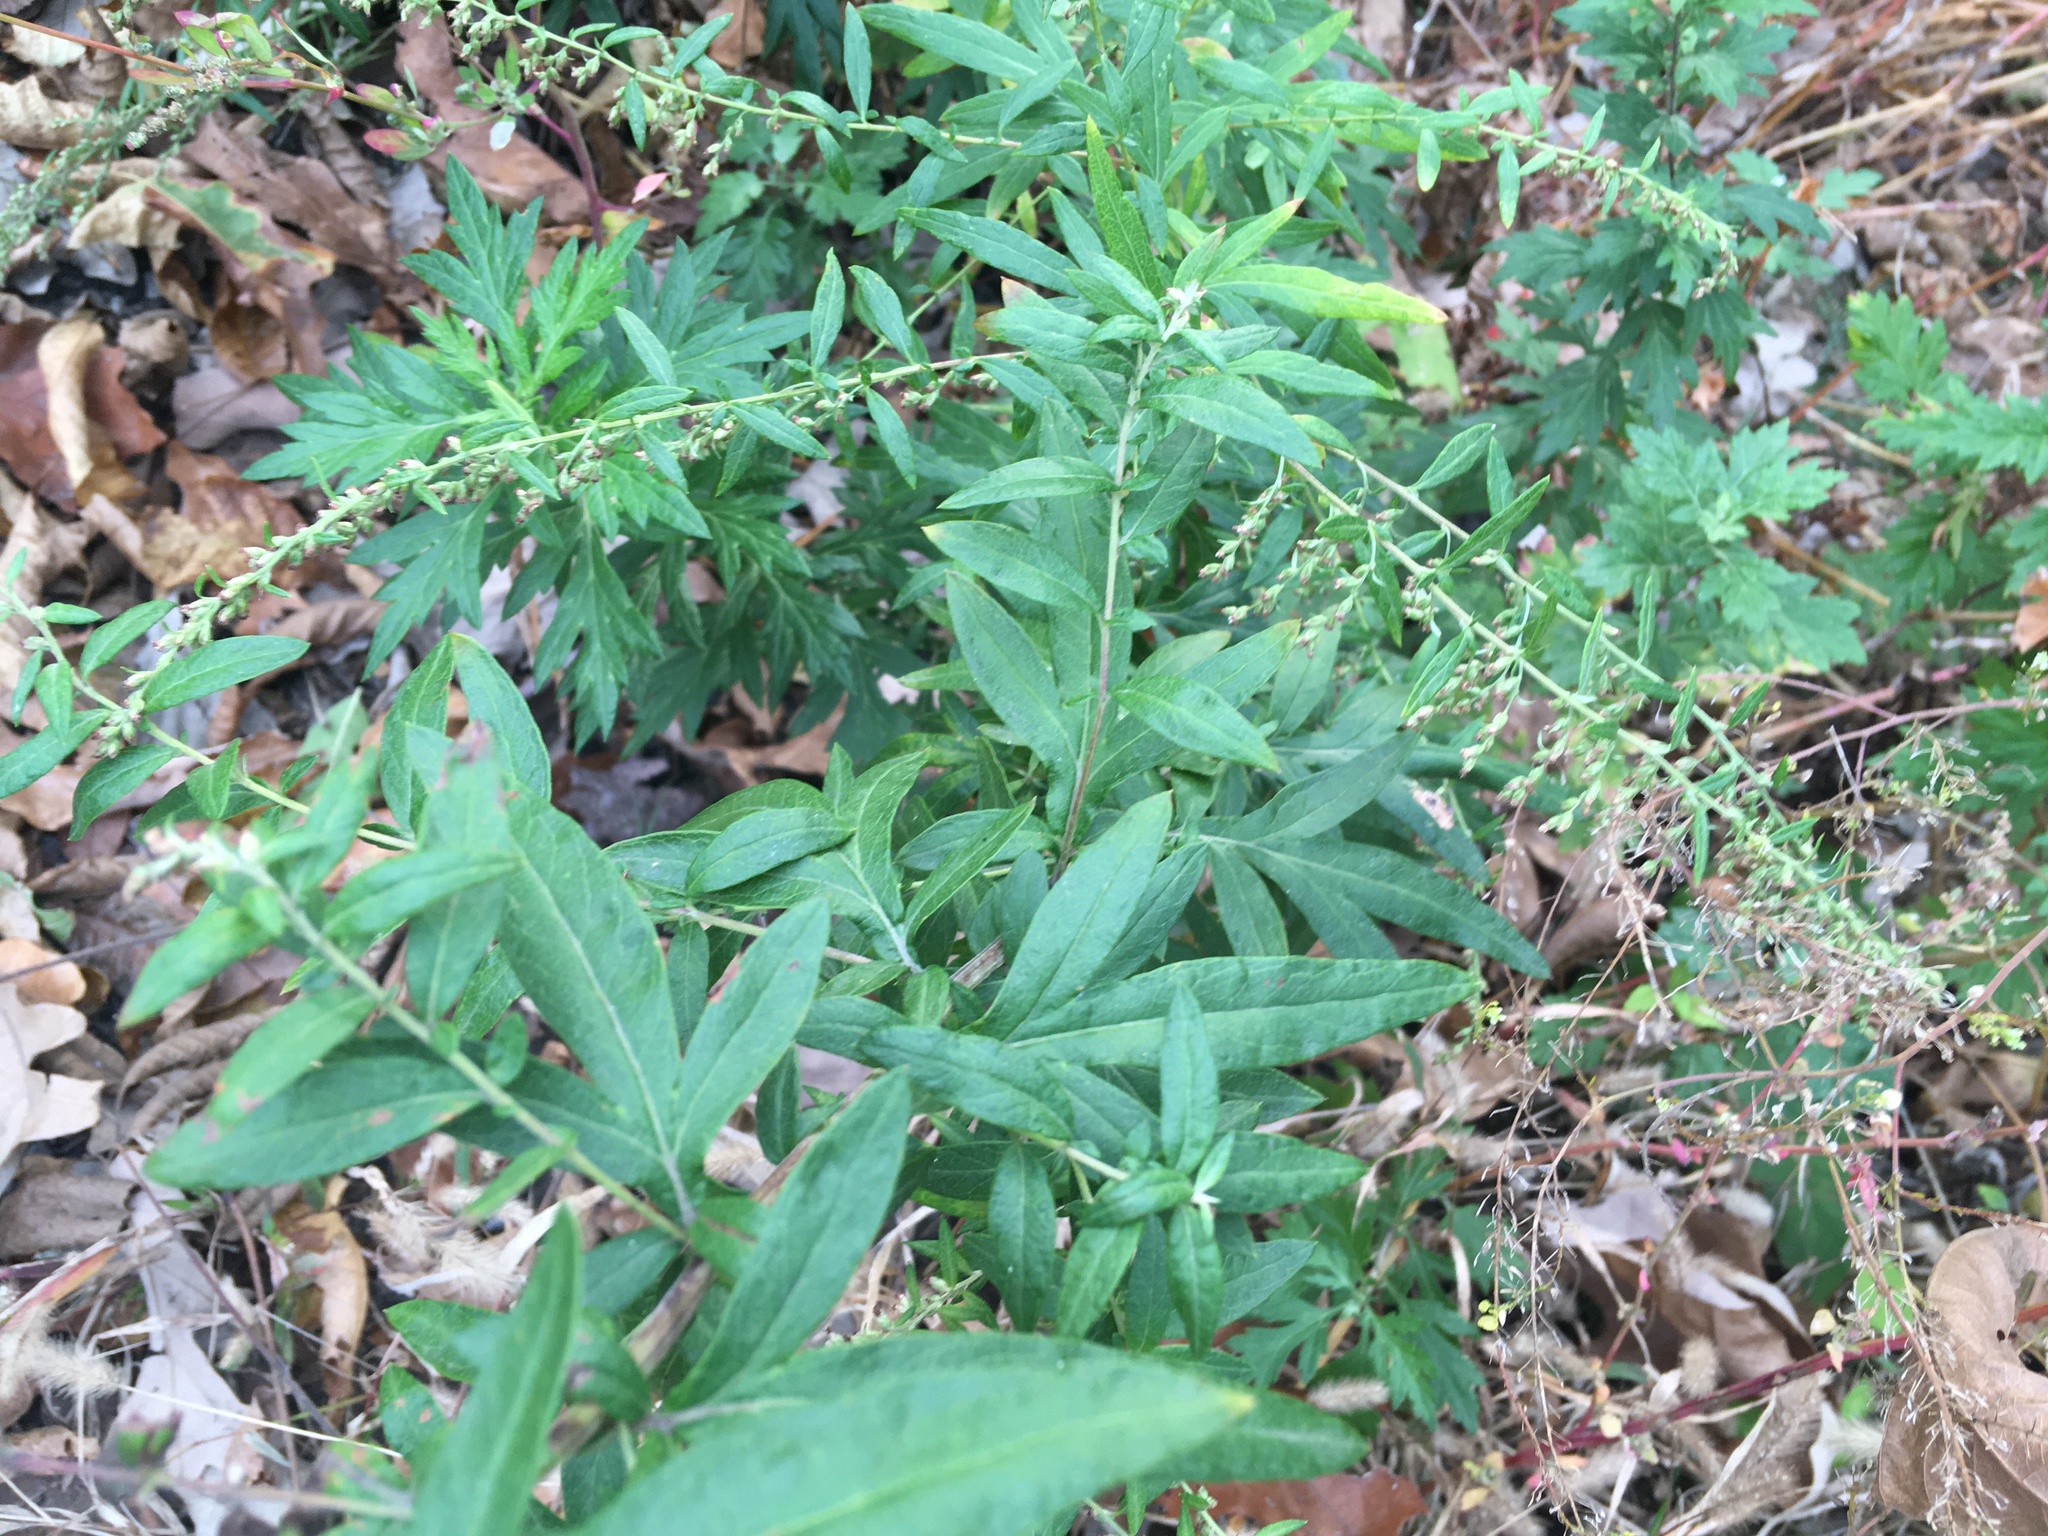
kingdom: Plantae
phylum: Tracheophyta
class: Magnoliopsida
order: Asterales
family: Asteraceae
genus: Artemisia
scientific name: Artemisia vulgaris
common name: Mugwort
